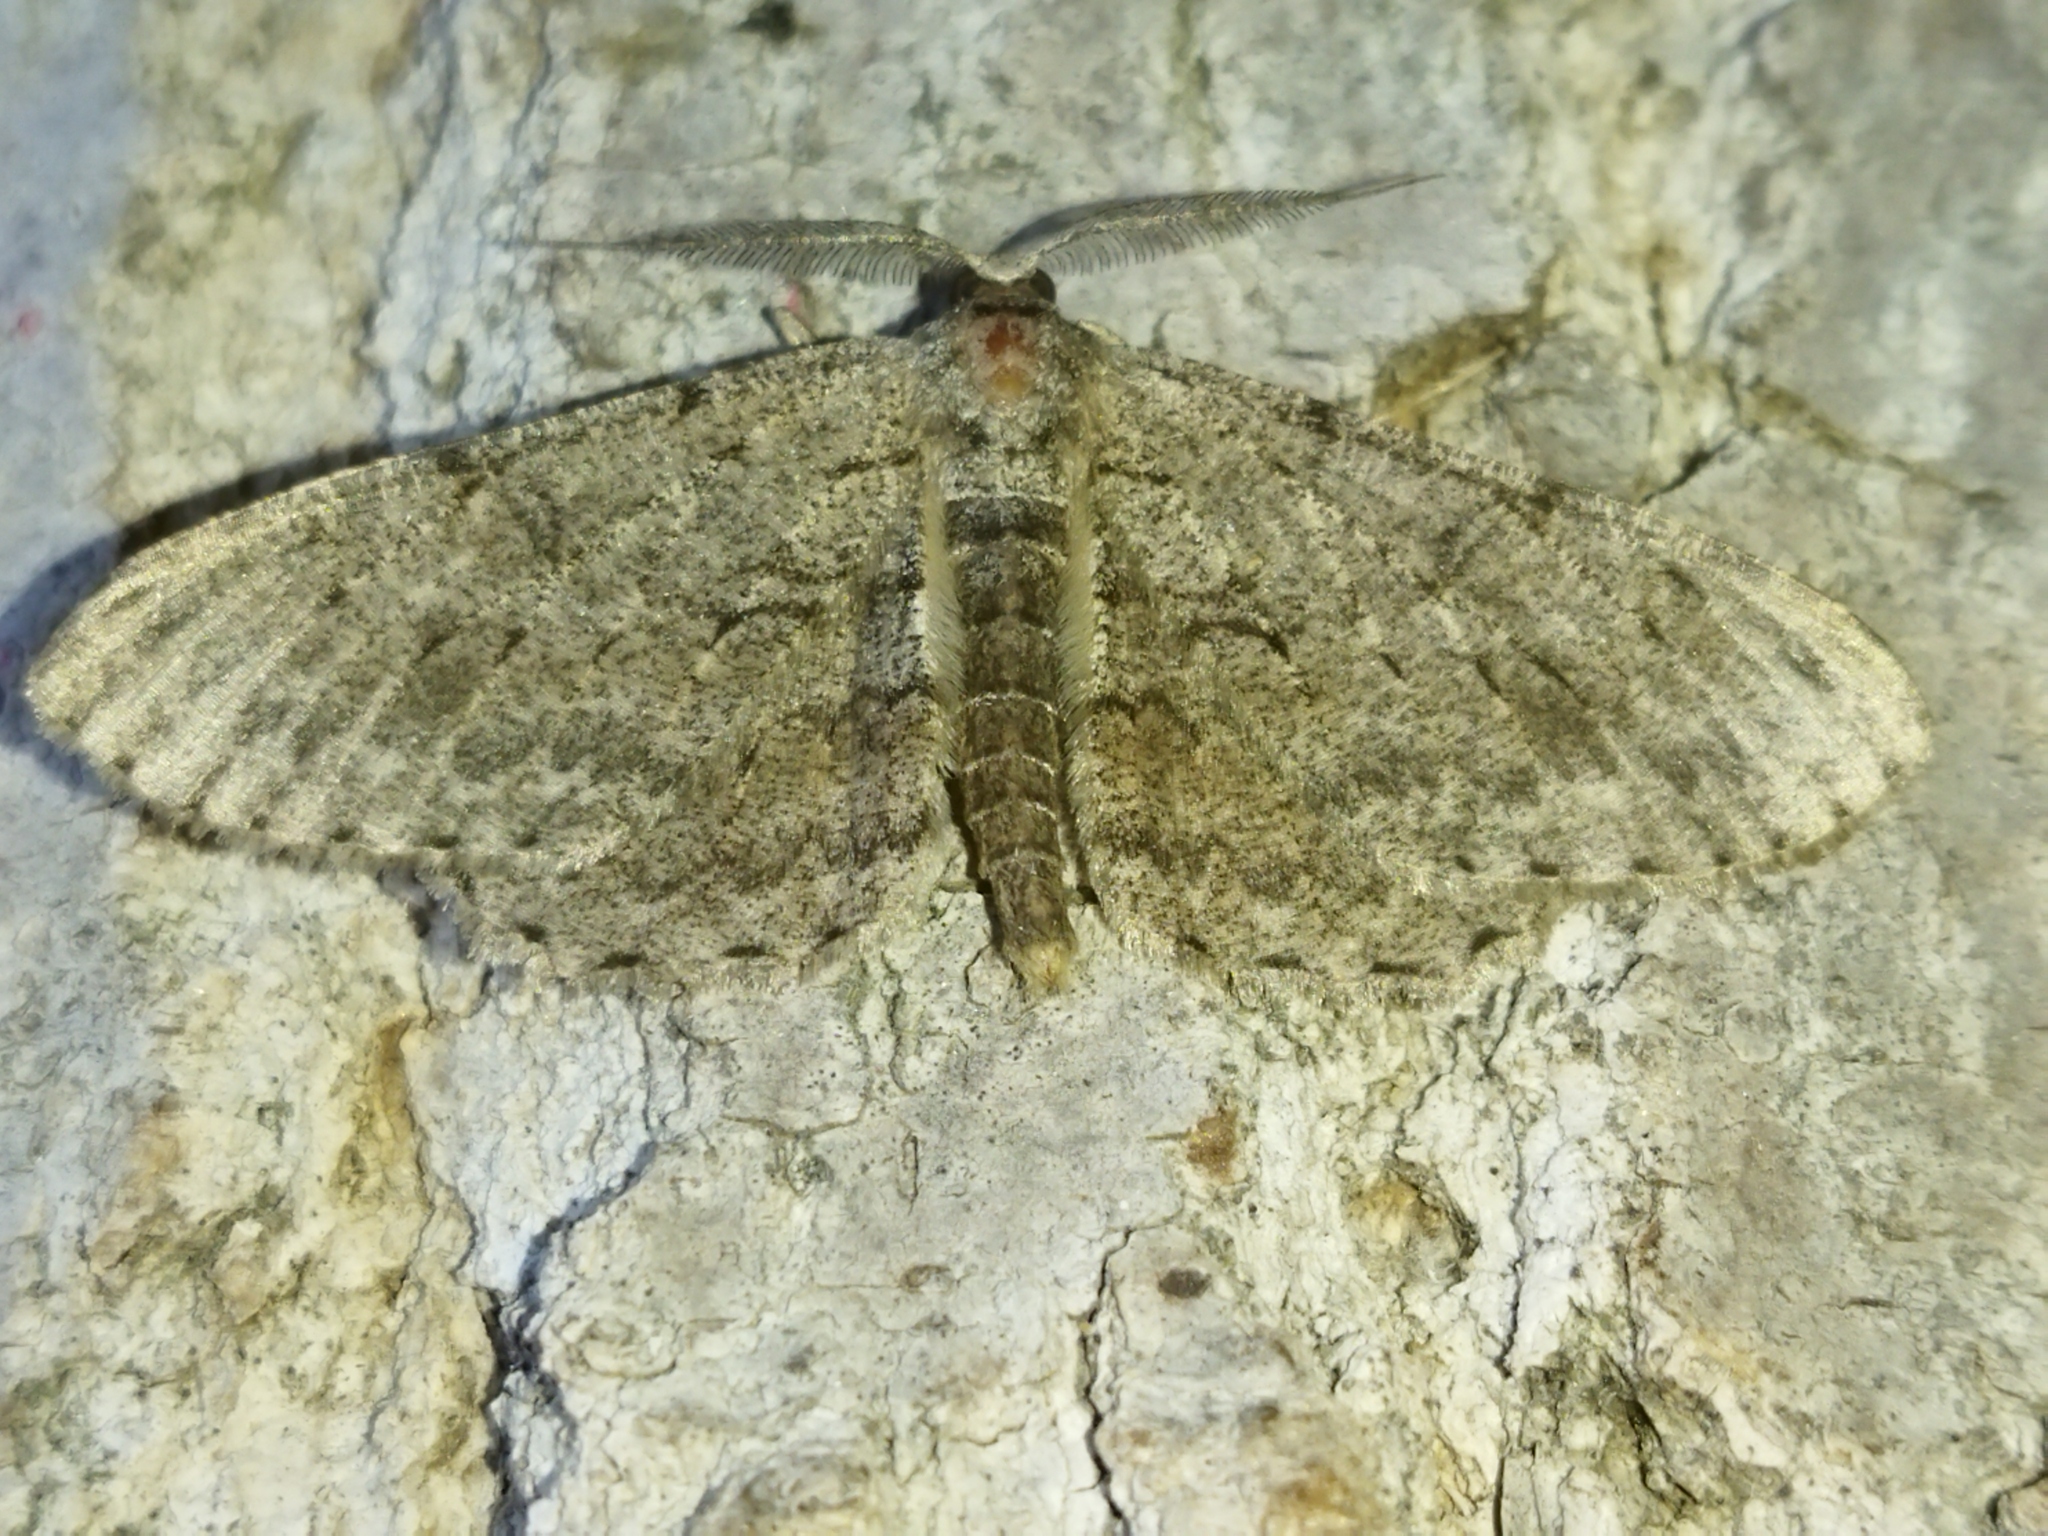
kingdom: Animalia
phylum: Arthropoda
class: Insecta
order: Lepidoptera
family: Geometridae
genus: Hypomecis
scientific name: Hypomecis punctinalis
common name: Pale oak beauty
